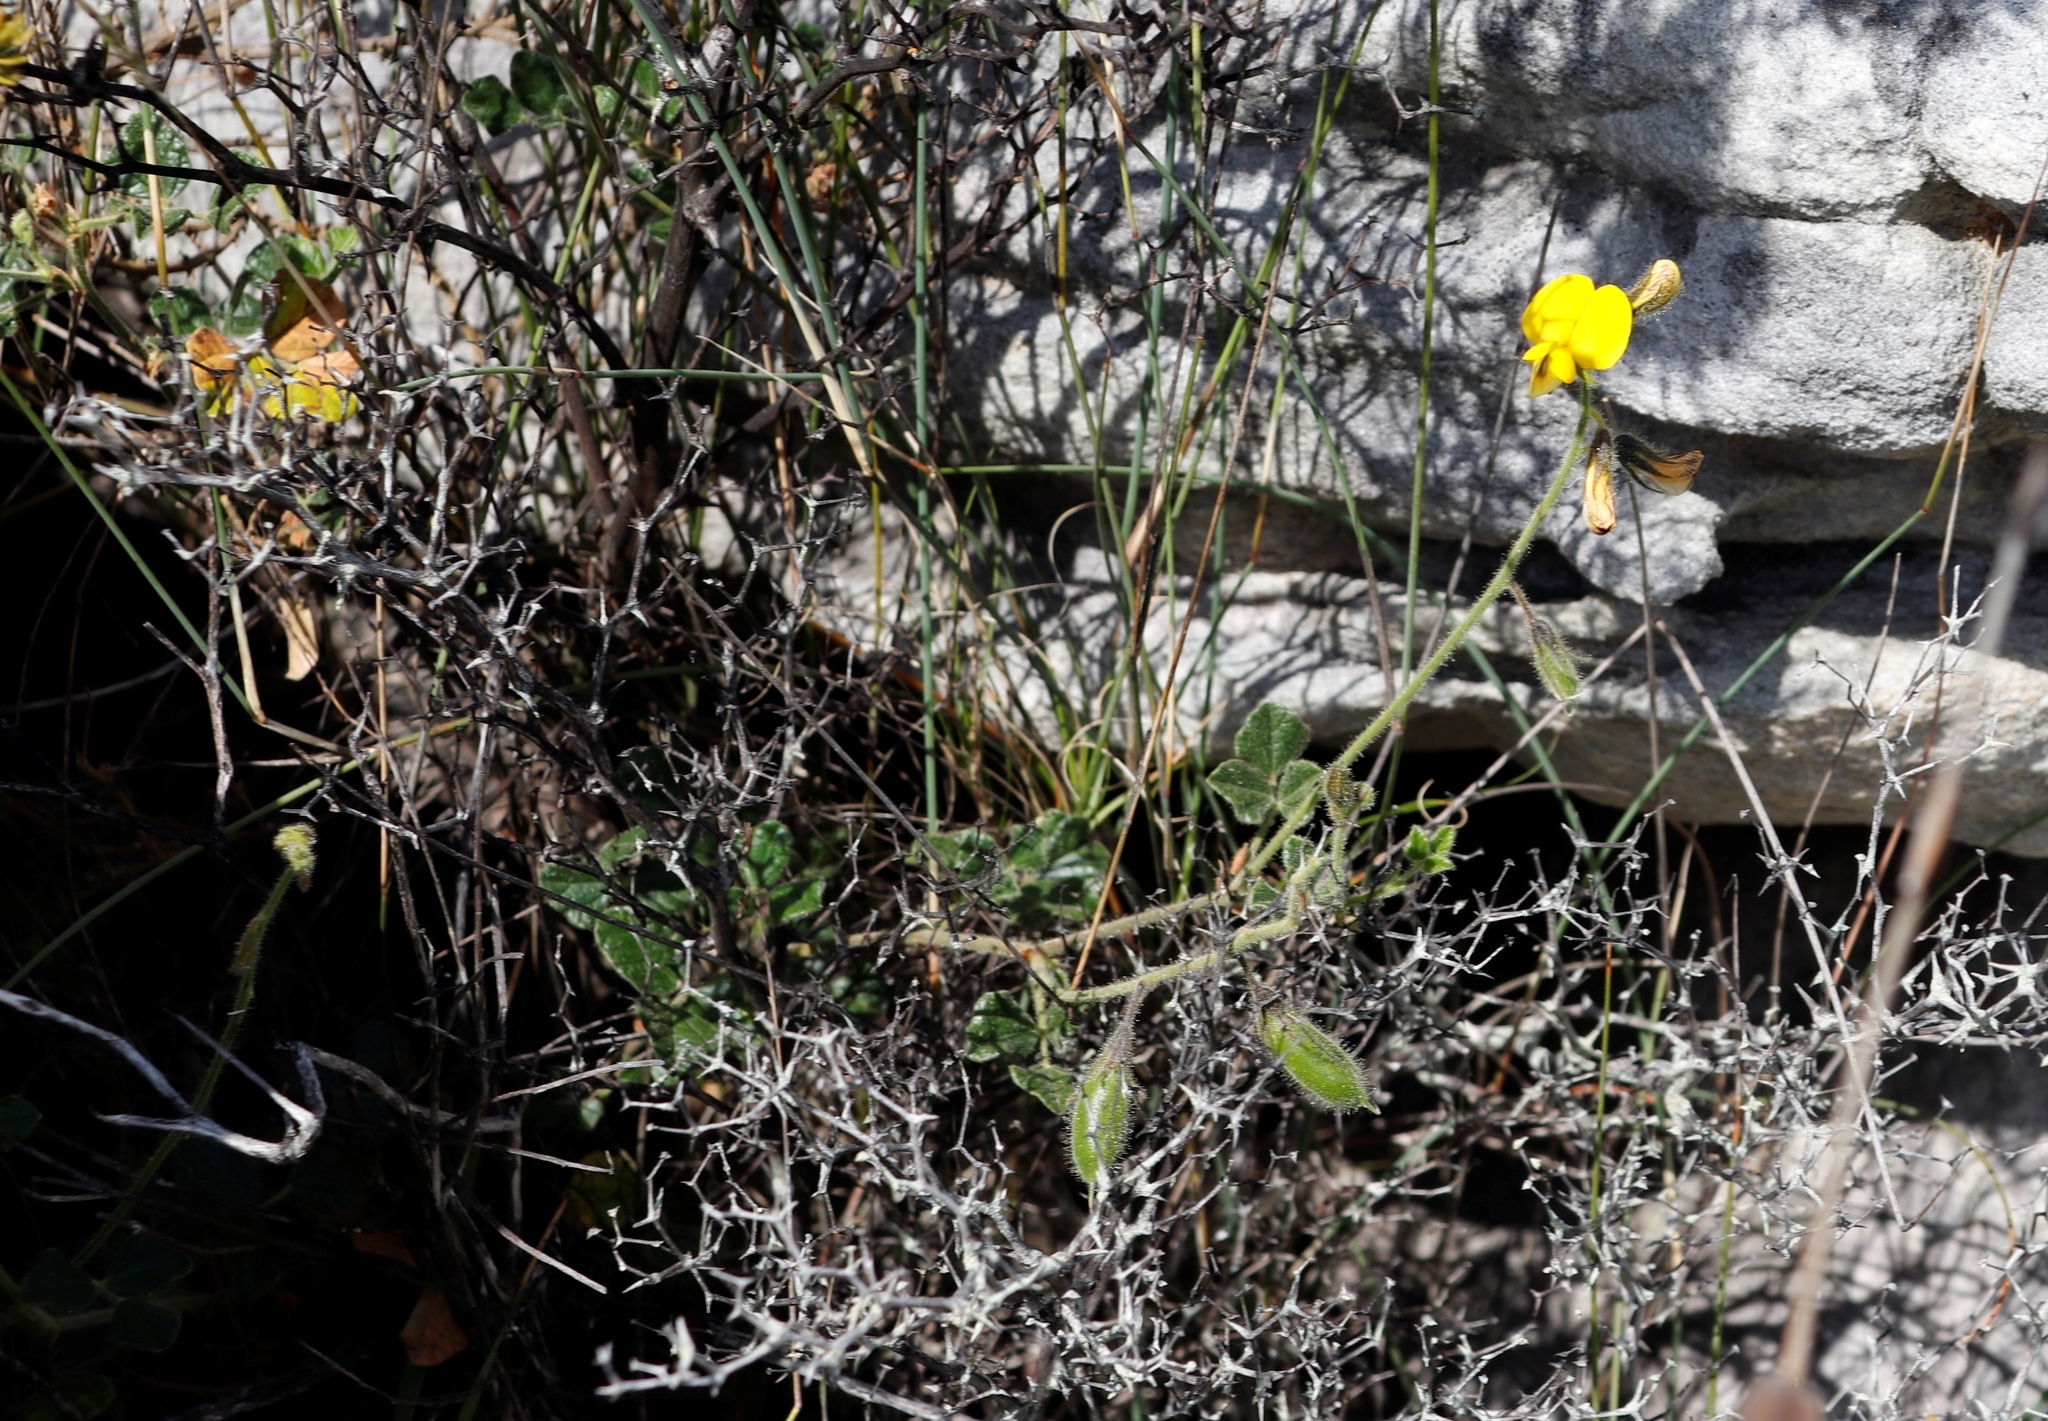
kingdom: Plantae
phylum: Tracheophyta
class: Magnoliopsida
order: Fabales
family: Fabaceae
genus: Bolusafra
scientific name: Bolusafra bituminosa
